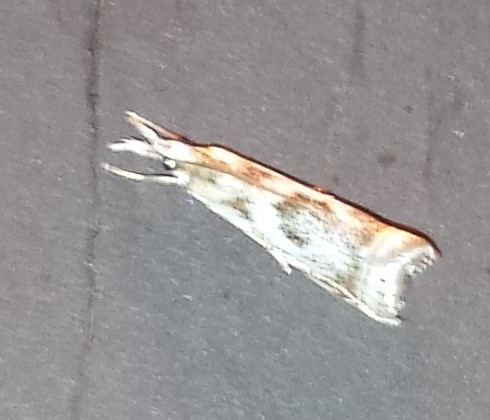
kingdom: Animalia
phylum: Arthropoda
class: Insecta
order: Lepidoptera
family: Crambidae
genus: Microcrambus
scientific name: Microcrambus elegans
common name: Elegant grass-veneer
